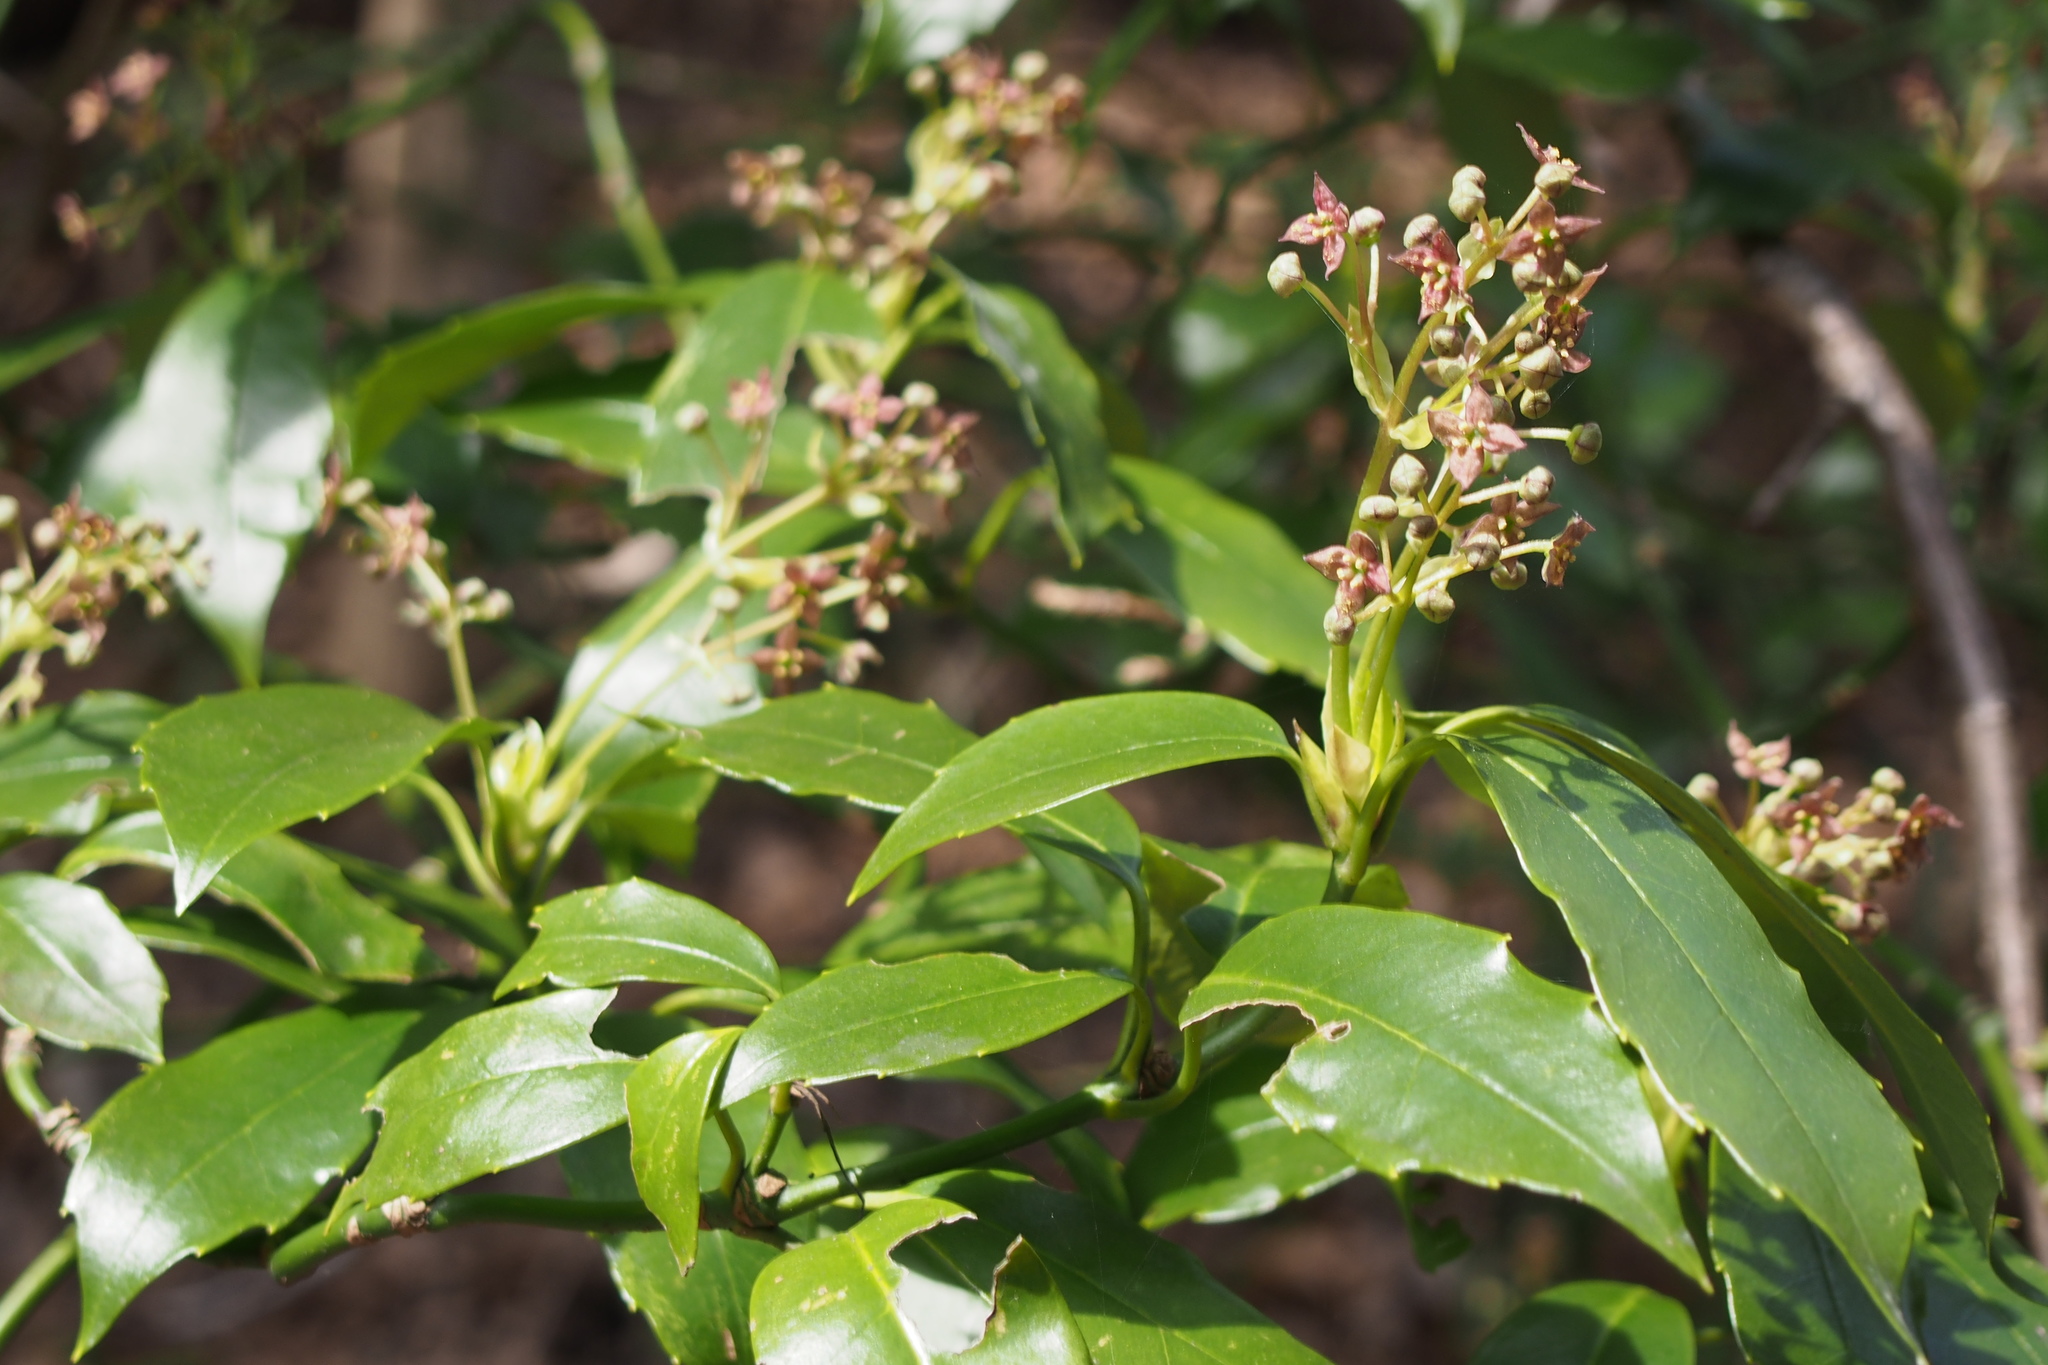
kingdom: Plantae
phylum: Tracheophyta
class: Magnoliopsida
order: Garryales
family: Garryaceae
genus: Aucuba
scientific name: Aucuba japonica
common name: Spotted-laurel
